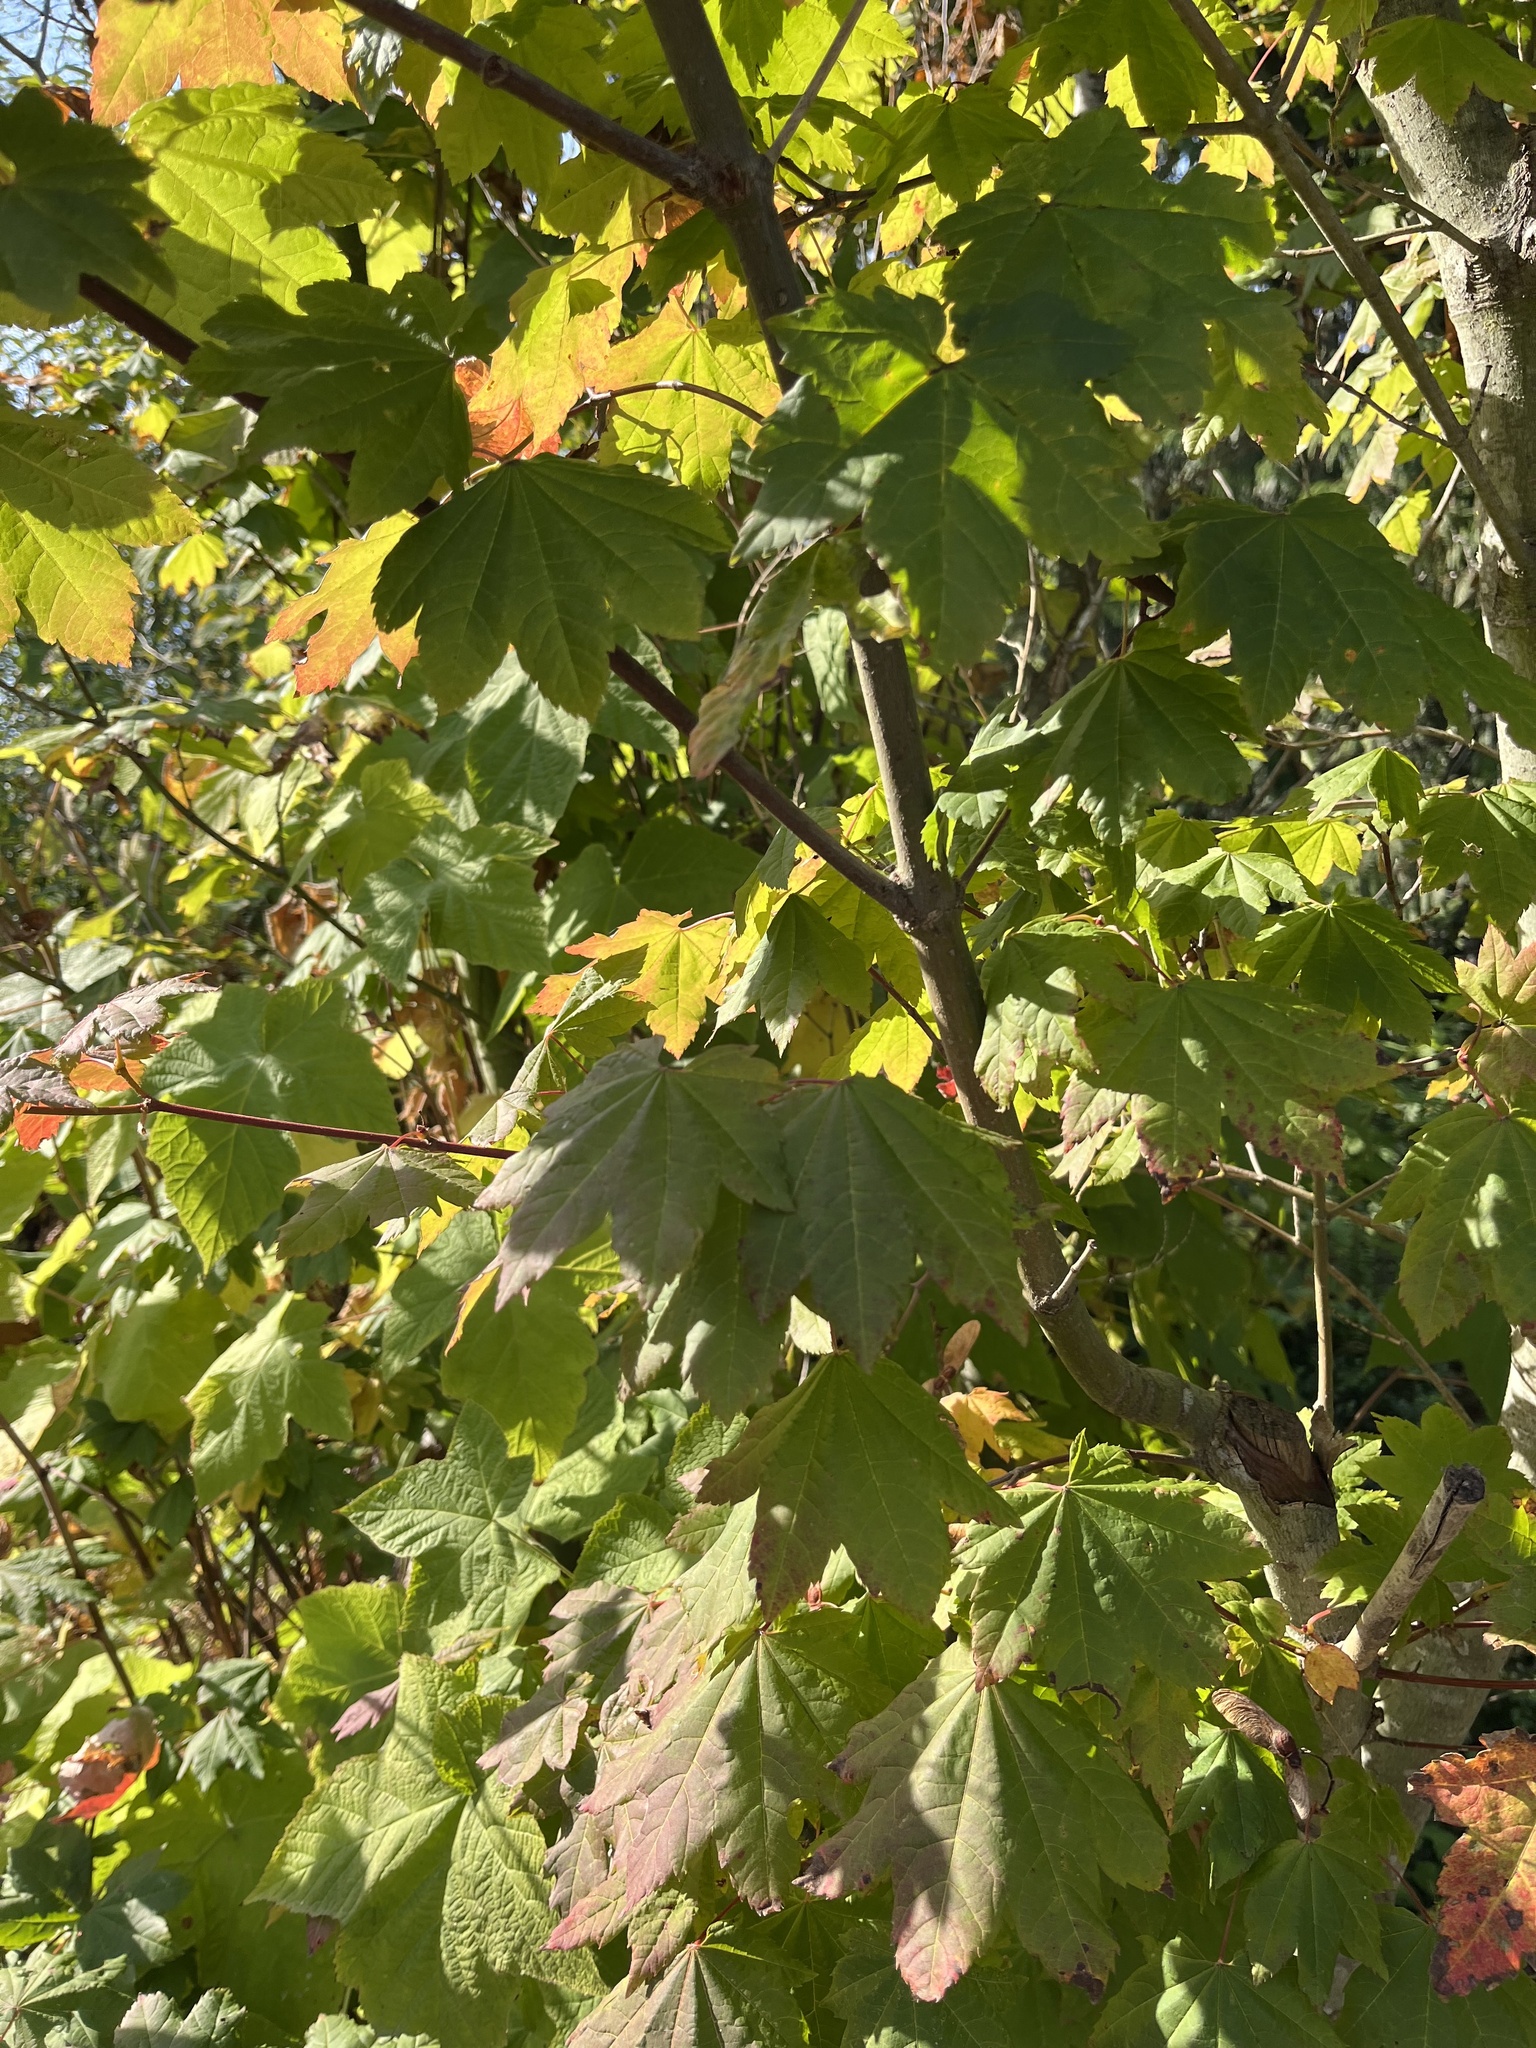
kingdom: Plantae
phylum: Tracheophyta
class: Magnoliopsida
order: Sapindales
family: Sapindaceae
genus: Acer
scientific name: Acer circinatum
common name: Vine maple
